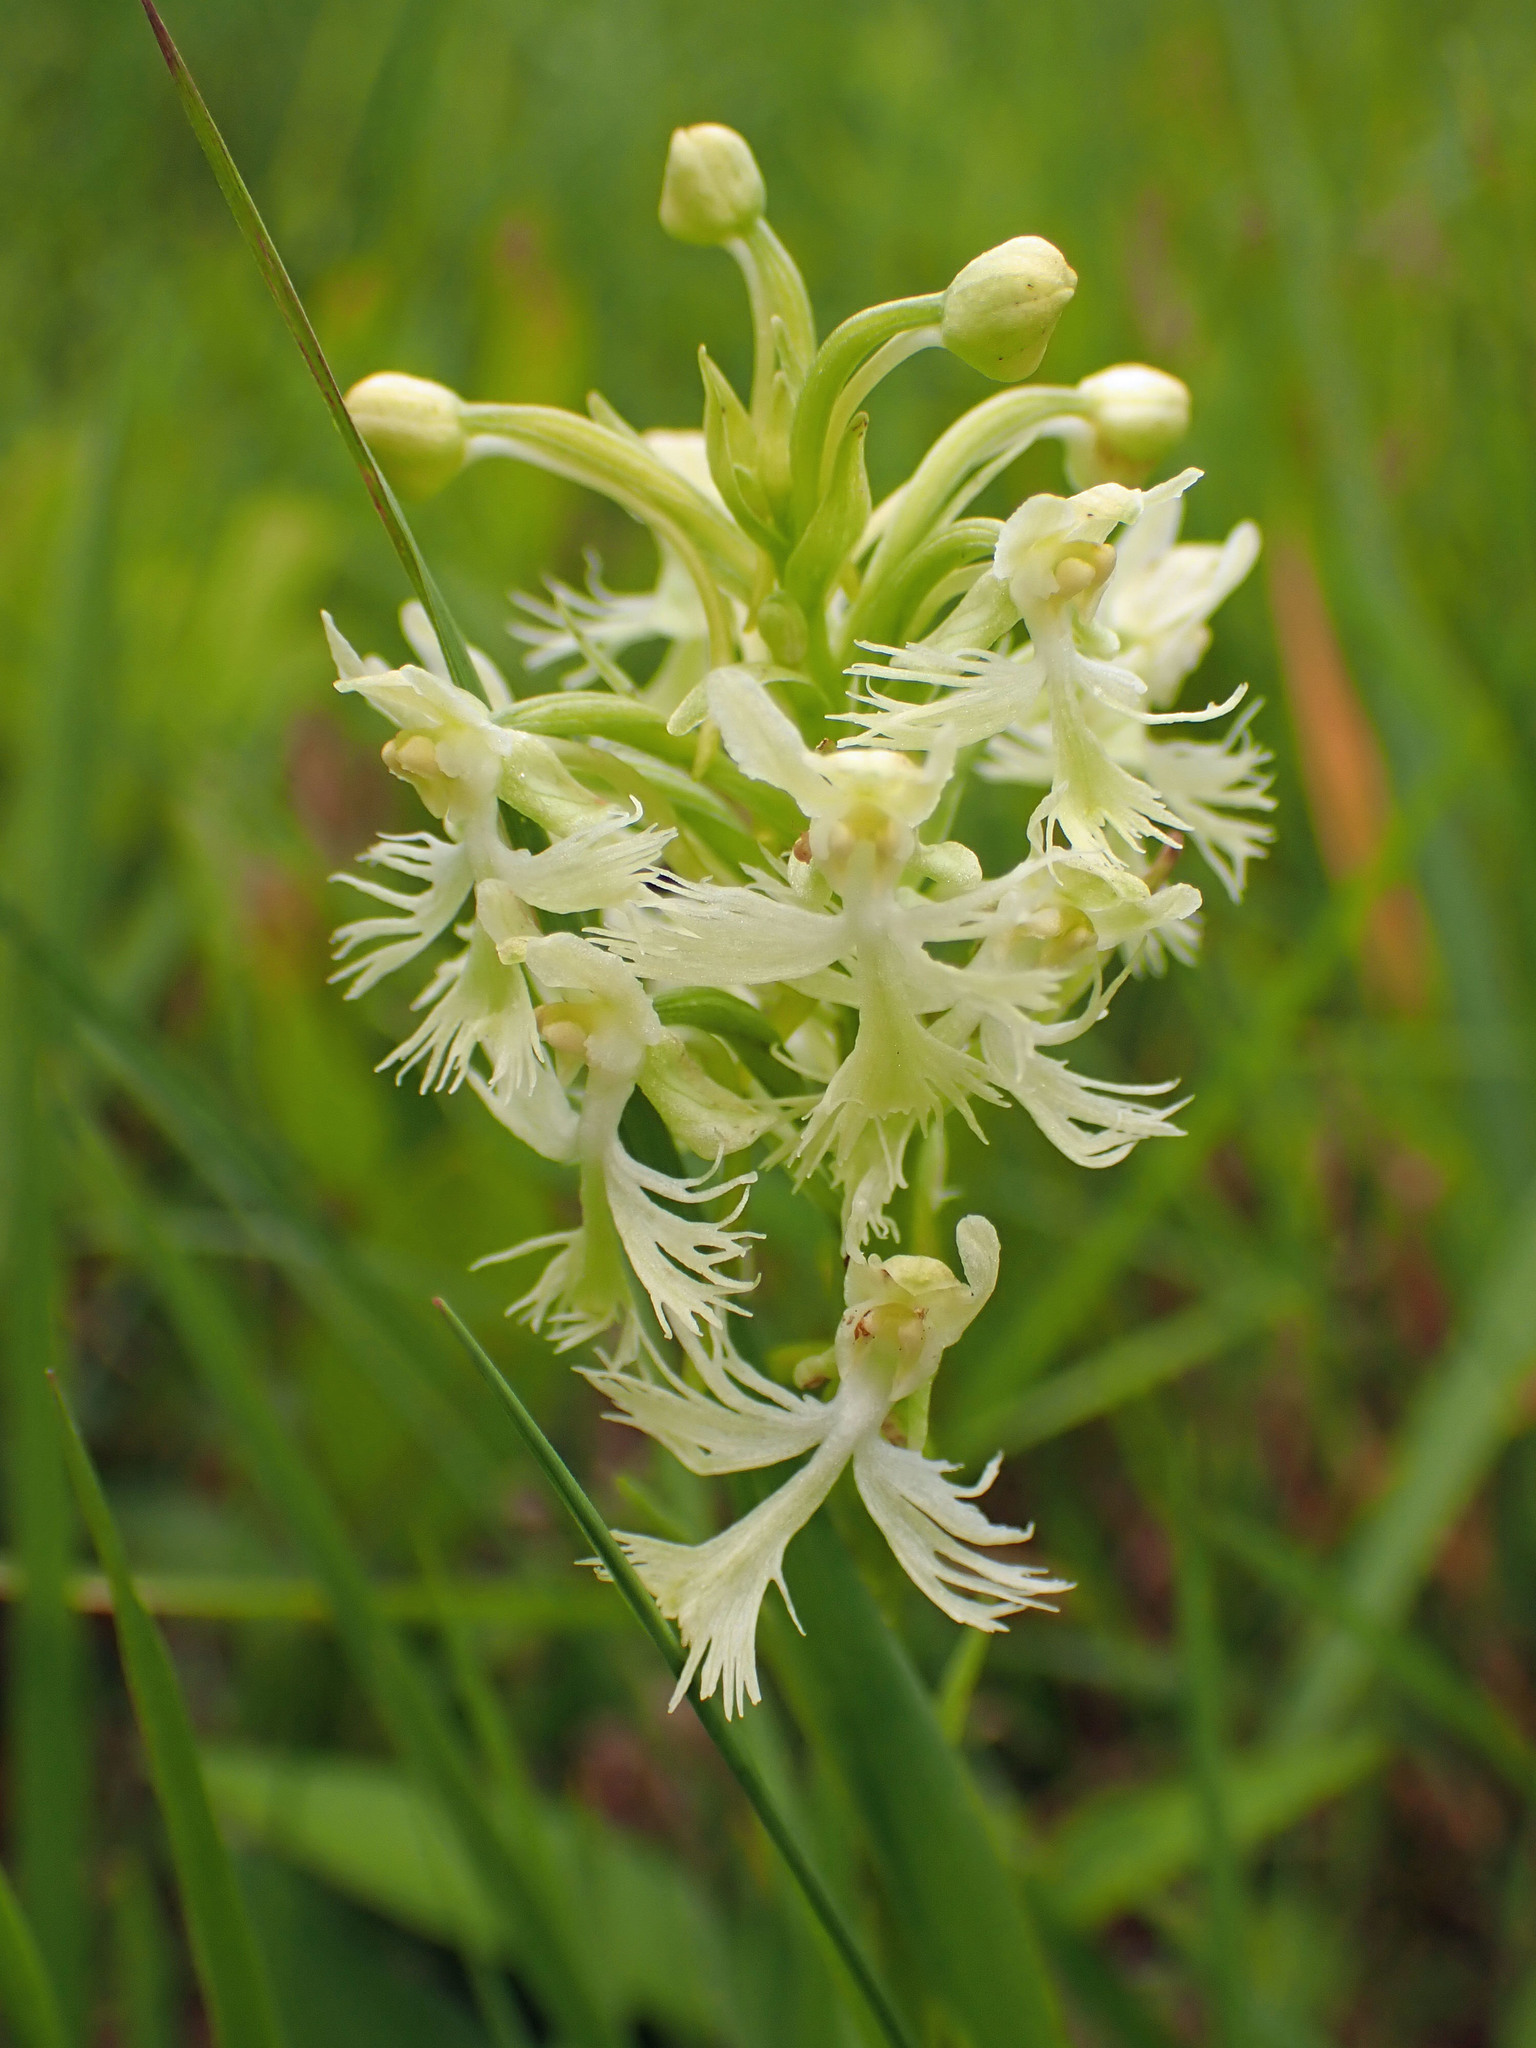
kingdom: Plantae
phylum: Tracheophyta
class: Liliopsida
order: Asparagales
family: Orchidaceae
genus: Platanthera
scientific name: Platanthera lacera
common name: Green fringed orchid
